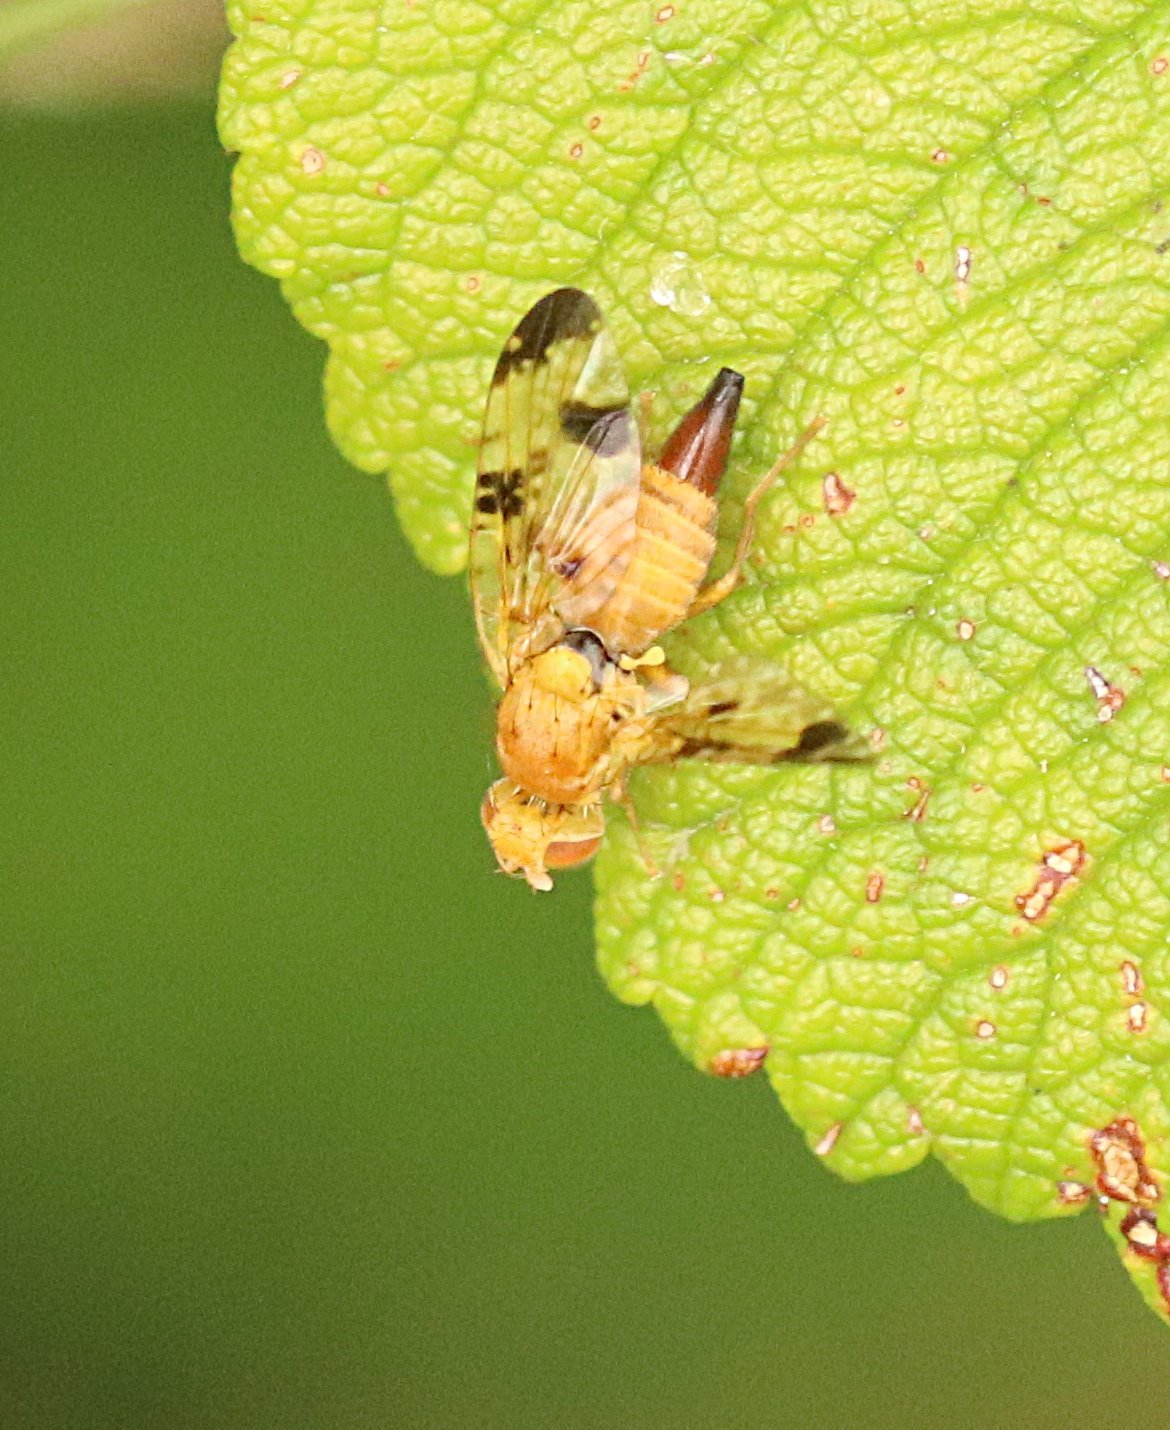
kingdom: Animalia
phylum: Arthropoda
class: Insecta
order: Diptera
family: Tephritidae
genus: Xyphosia
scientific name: Xyphosia miliaria
